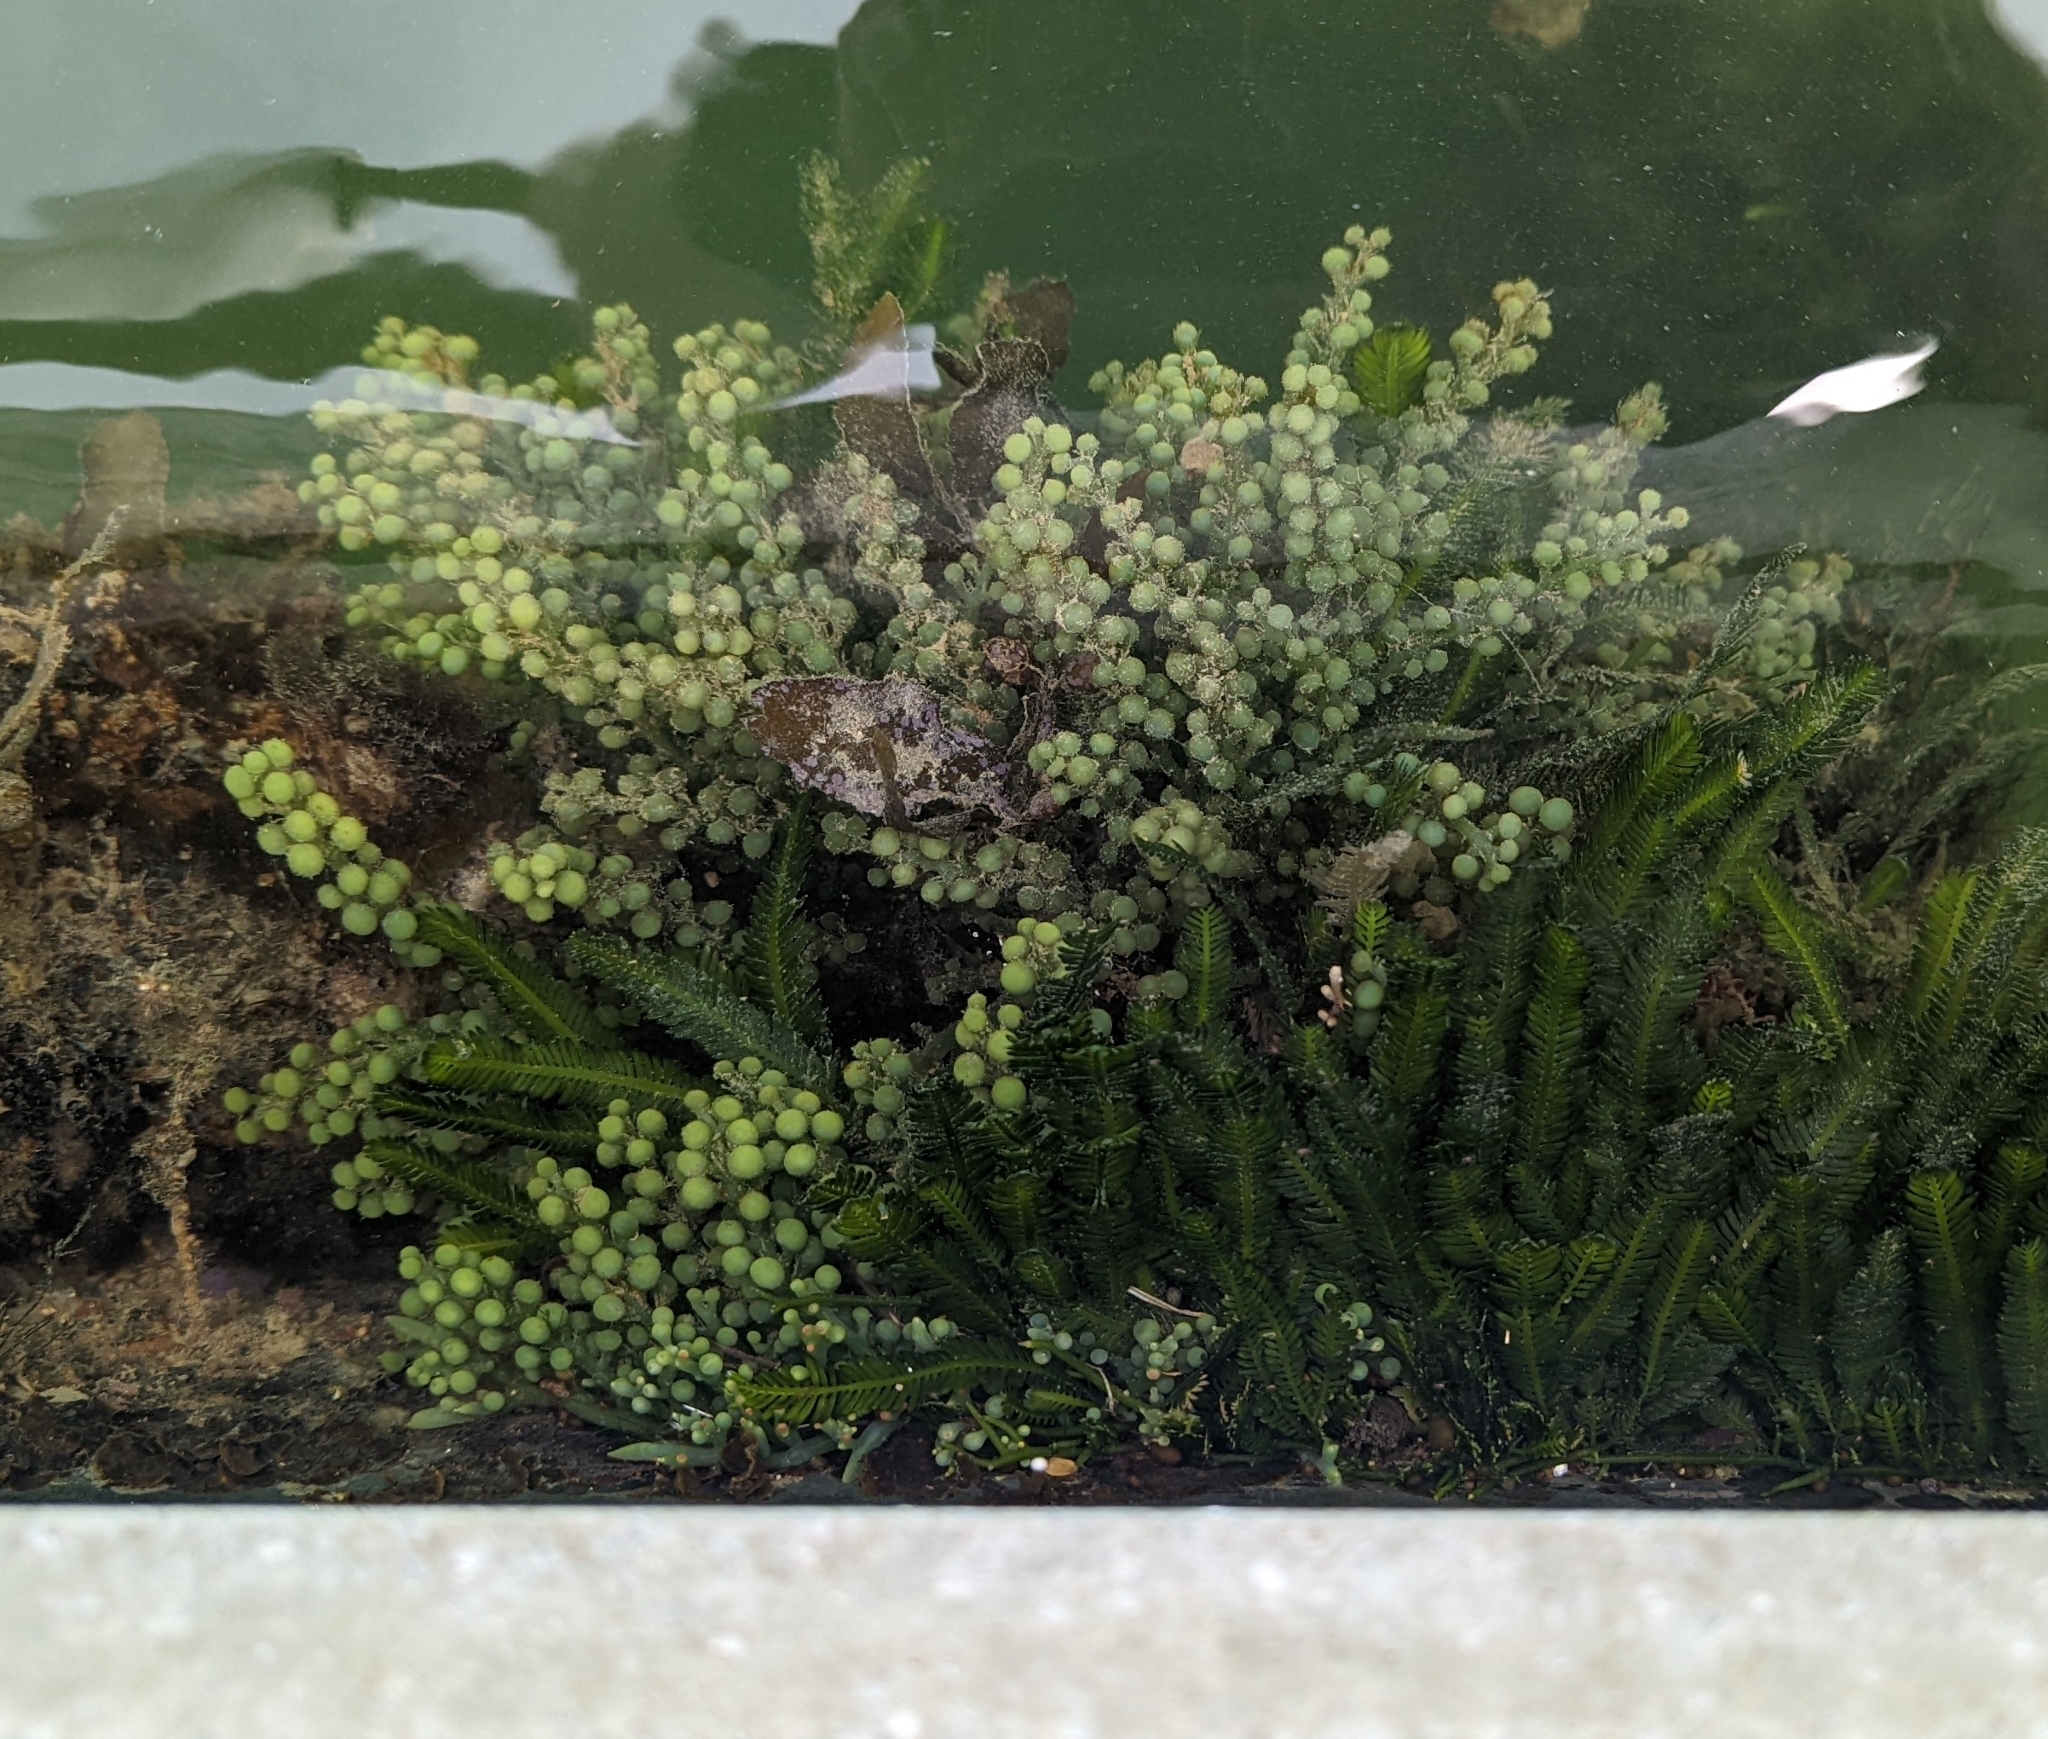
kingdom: Plantae
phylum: Chlorophyta
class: Ulvophyceae
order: Bryopsidales
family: Caulerpaceae
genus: Caulerpa
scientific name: Caulerpa racemosa
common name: Green grape algae
